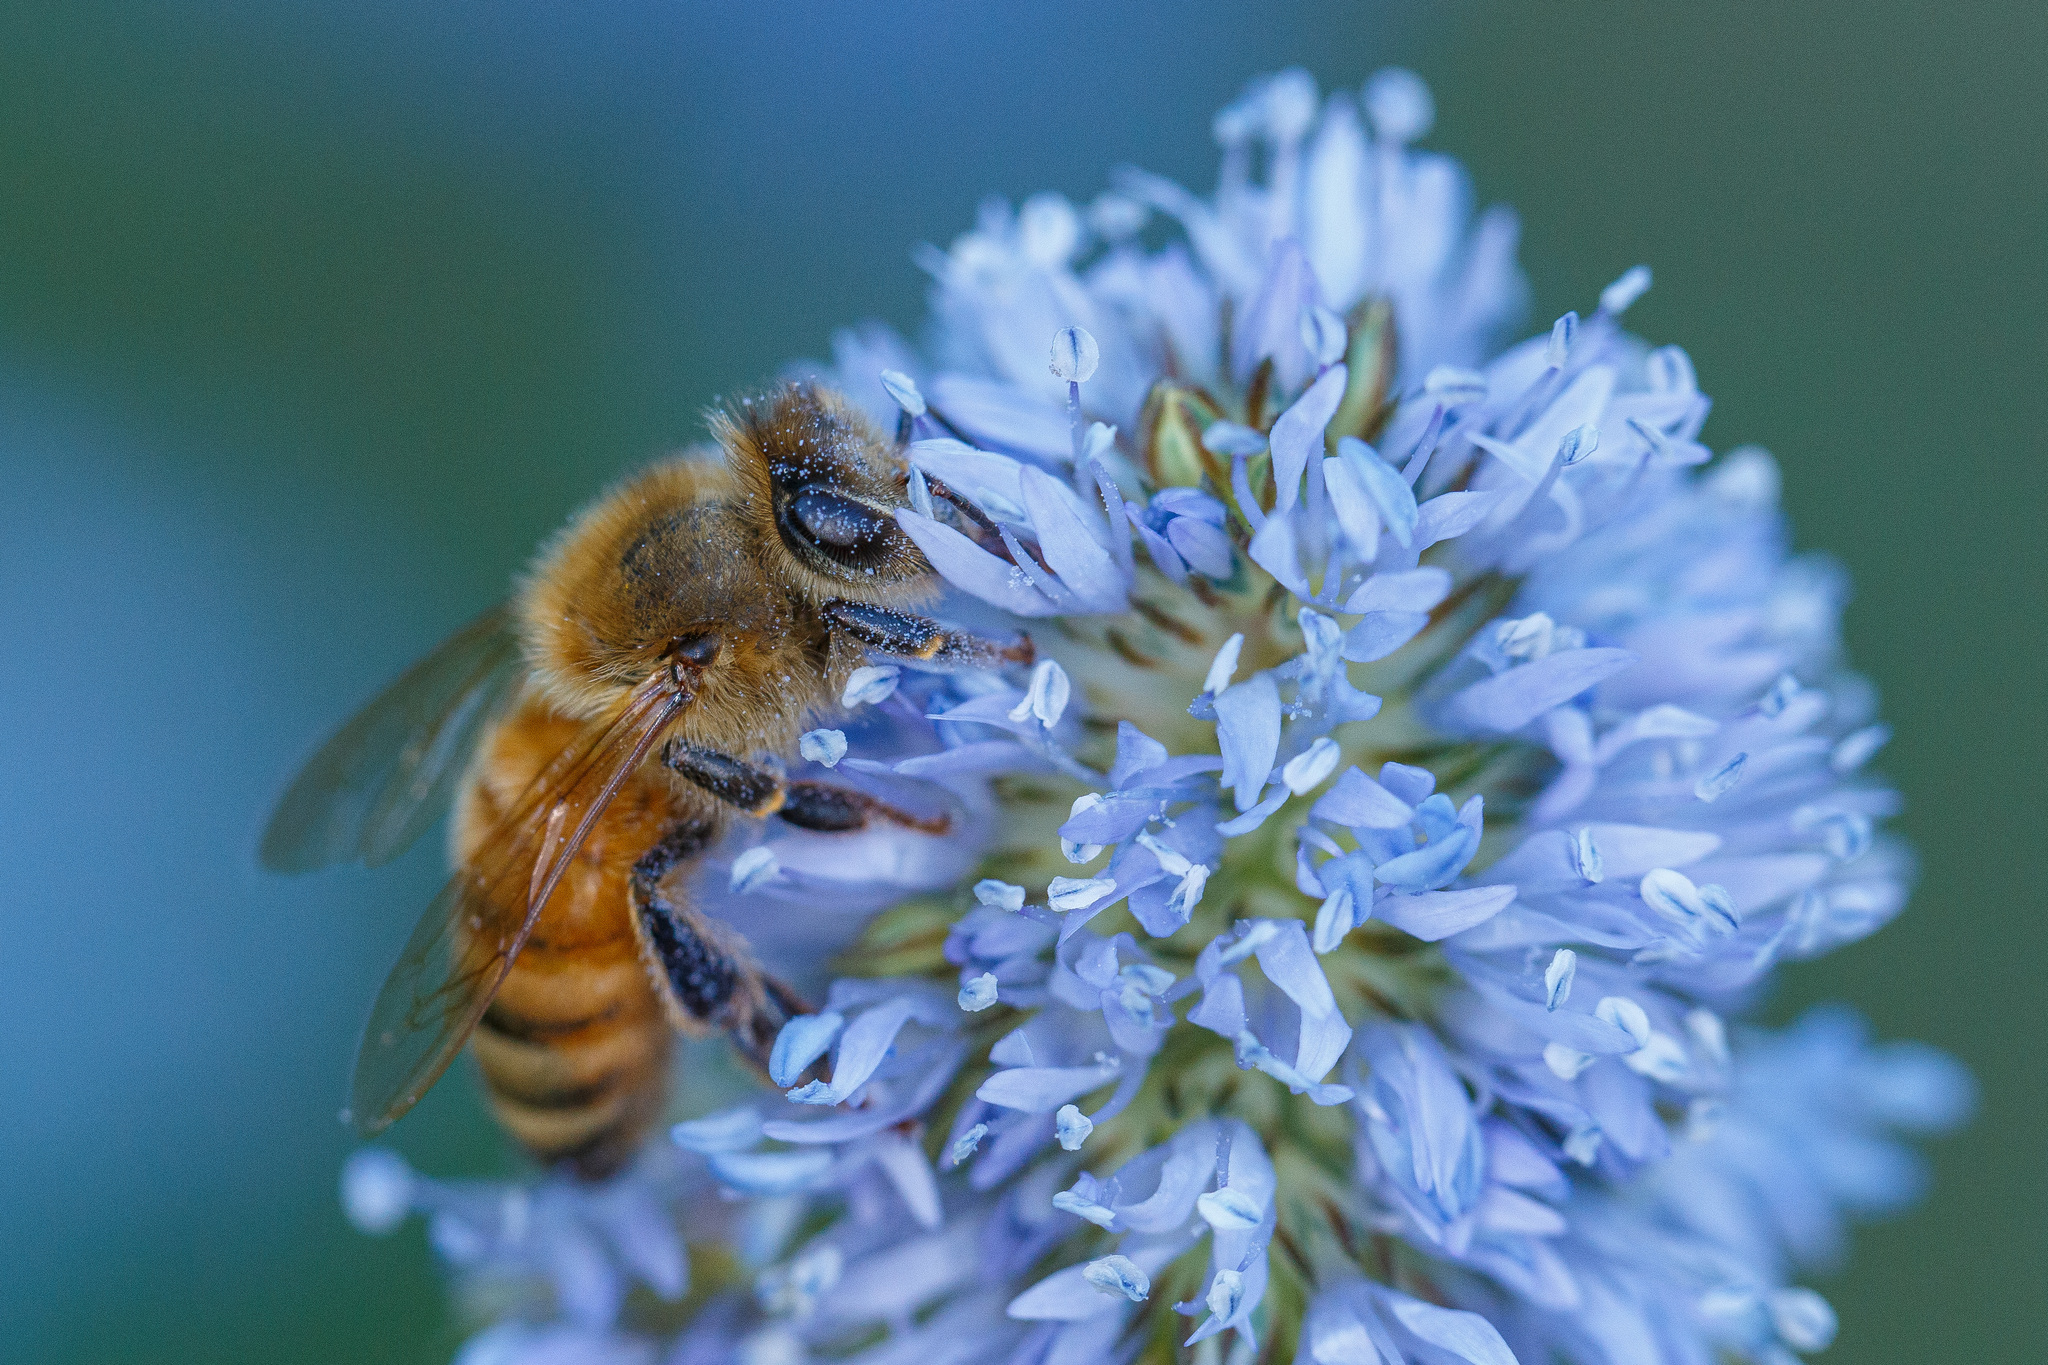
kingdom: Animalia
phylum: Arthropoda
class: Insecta
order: Hymenoptera
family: Apidae
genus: Apis
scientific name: Apis mellifera
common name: Honey bee
